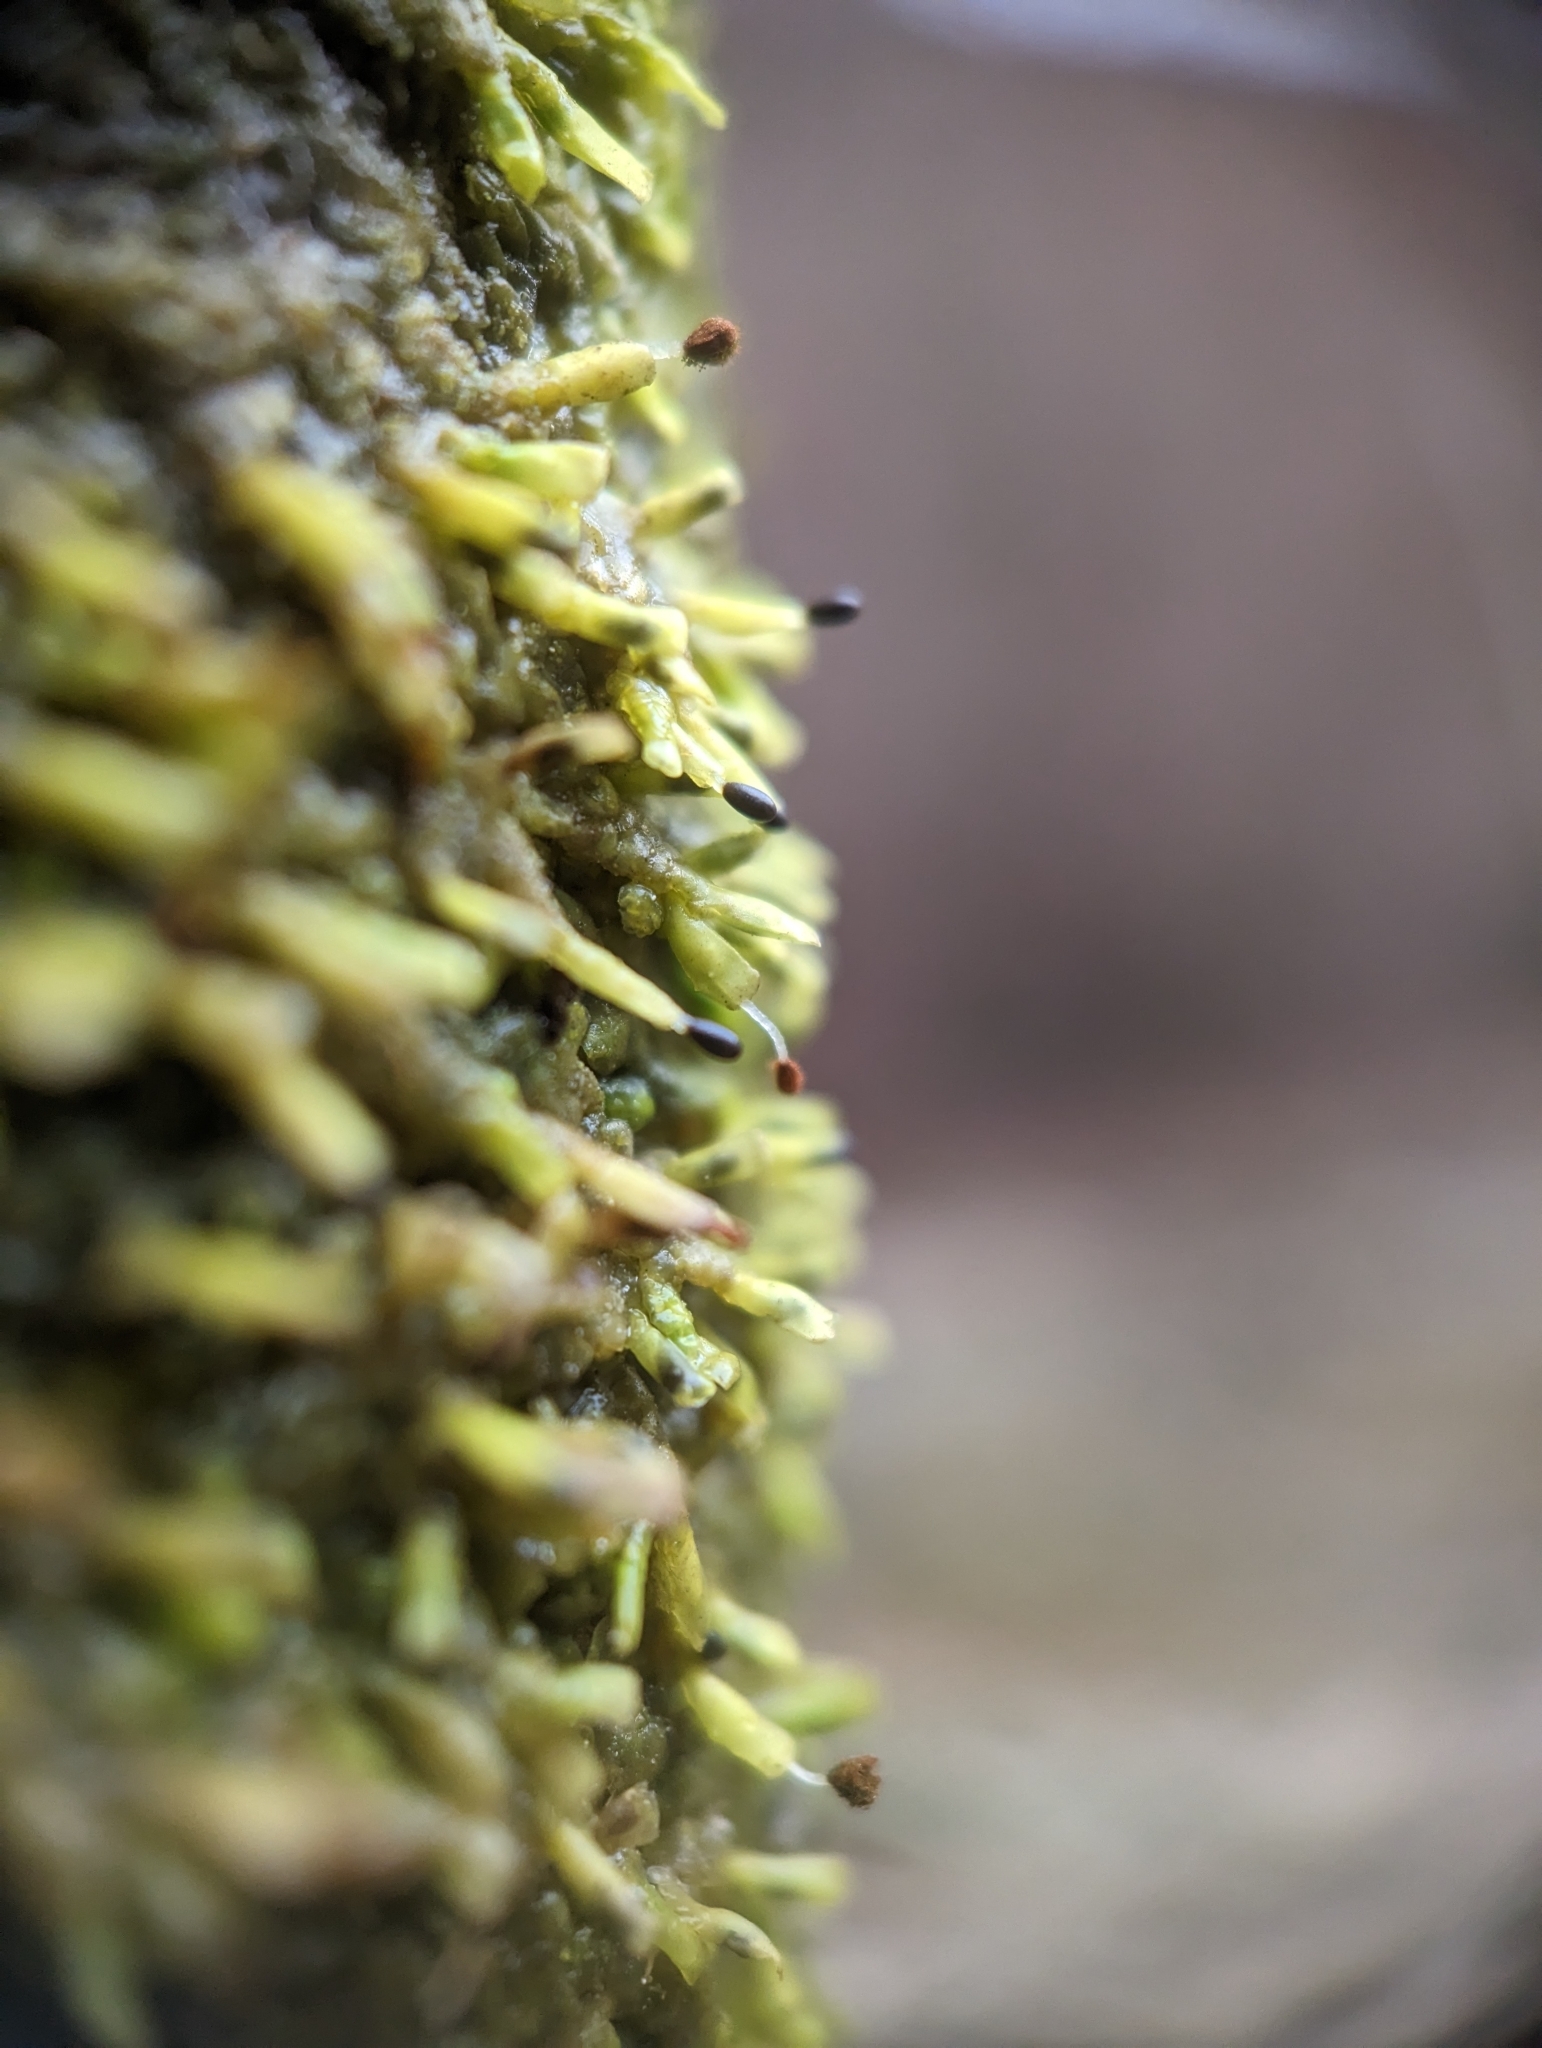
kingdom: Plantae
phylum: Marchantiophyta
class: Jungermanniopsida
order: Porellales
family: Radulaceae
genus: Radula
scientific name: Radula complanata
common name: Flat-leaved scalewort
